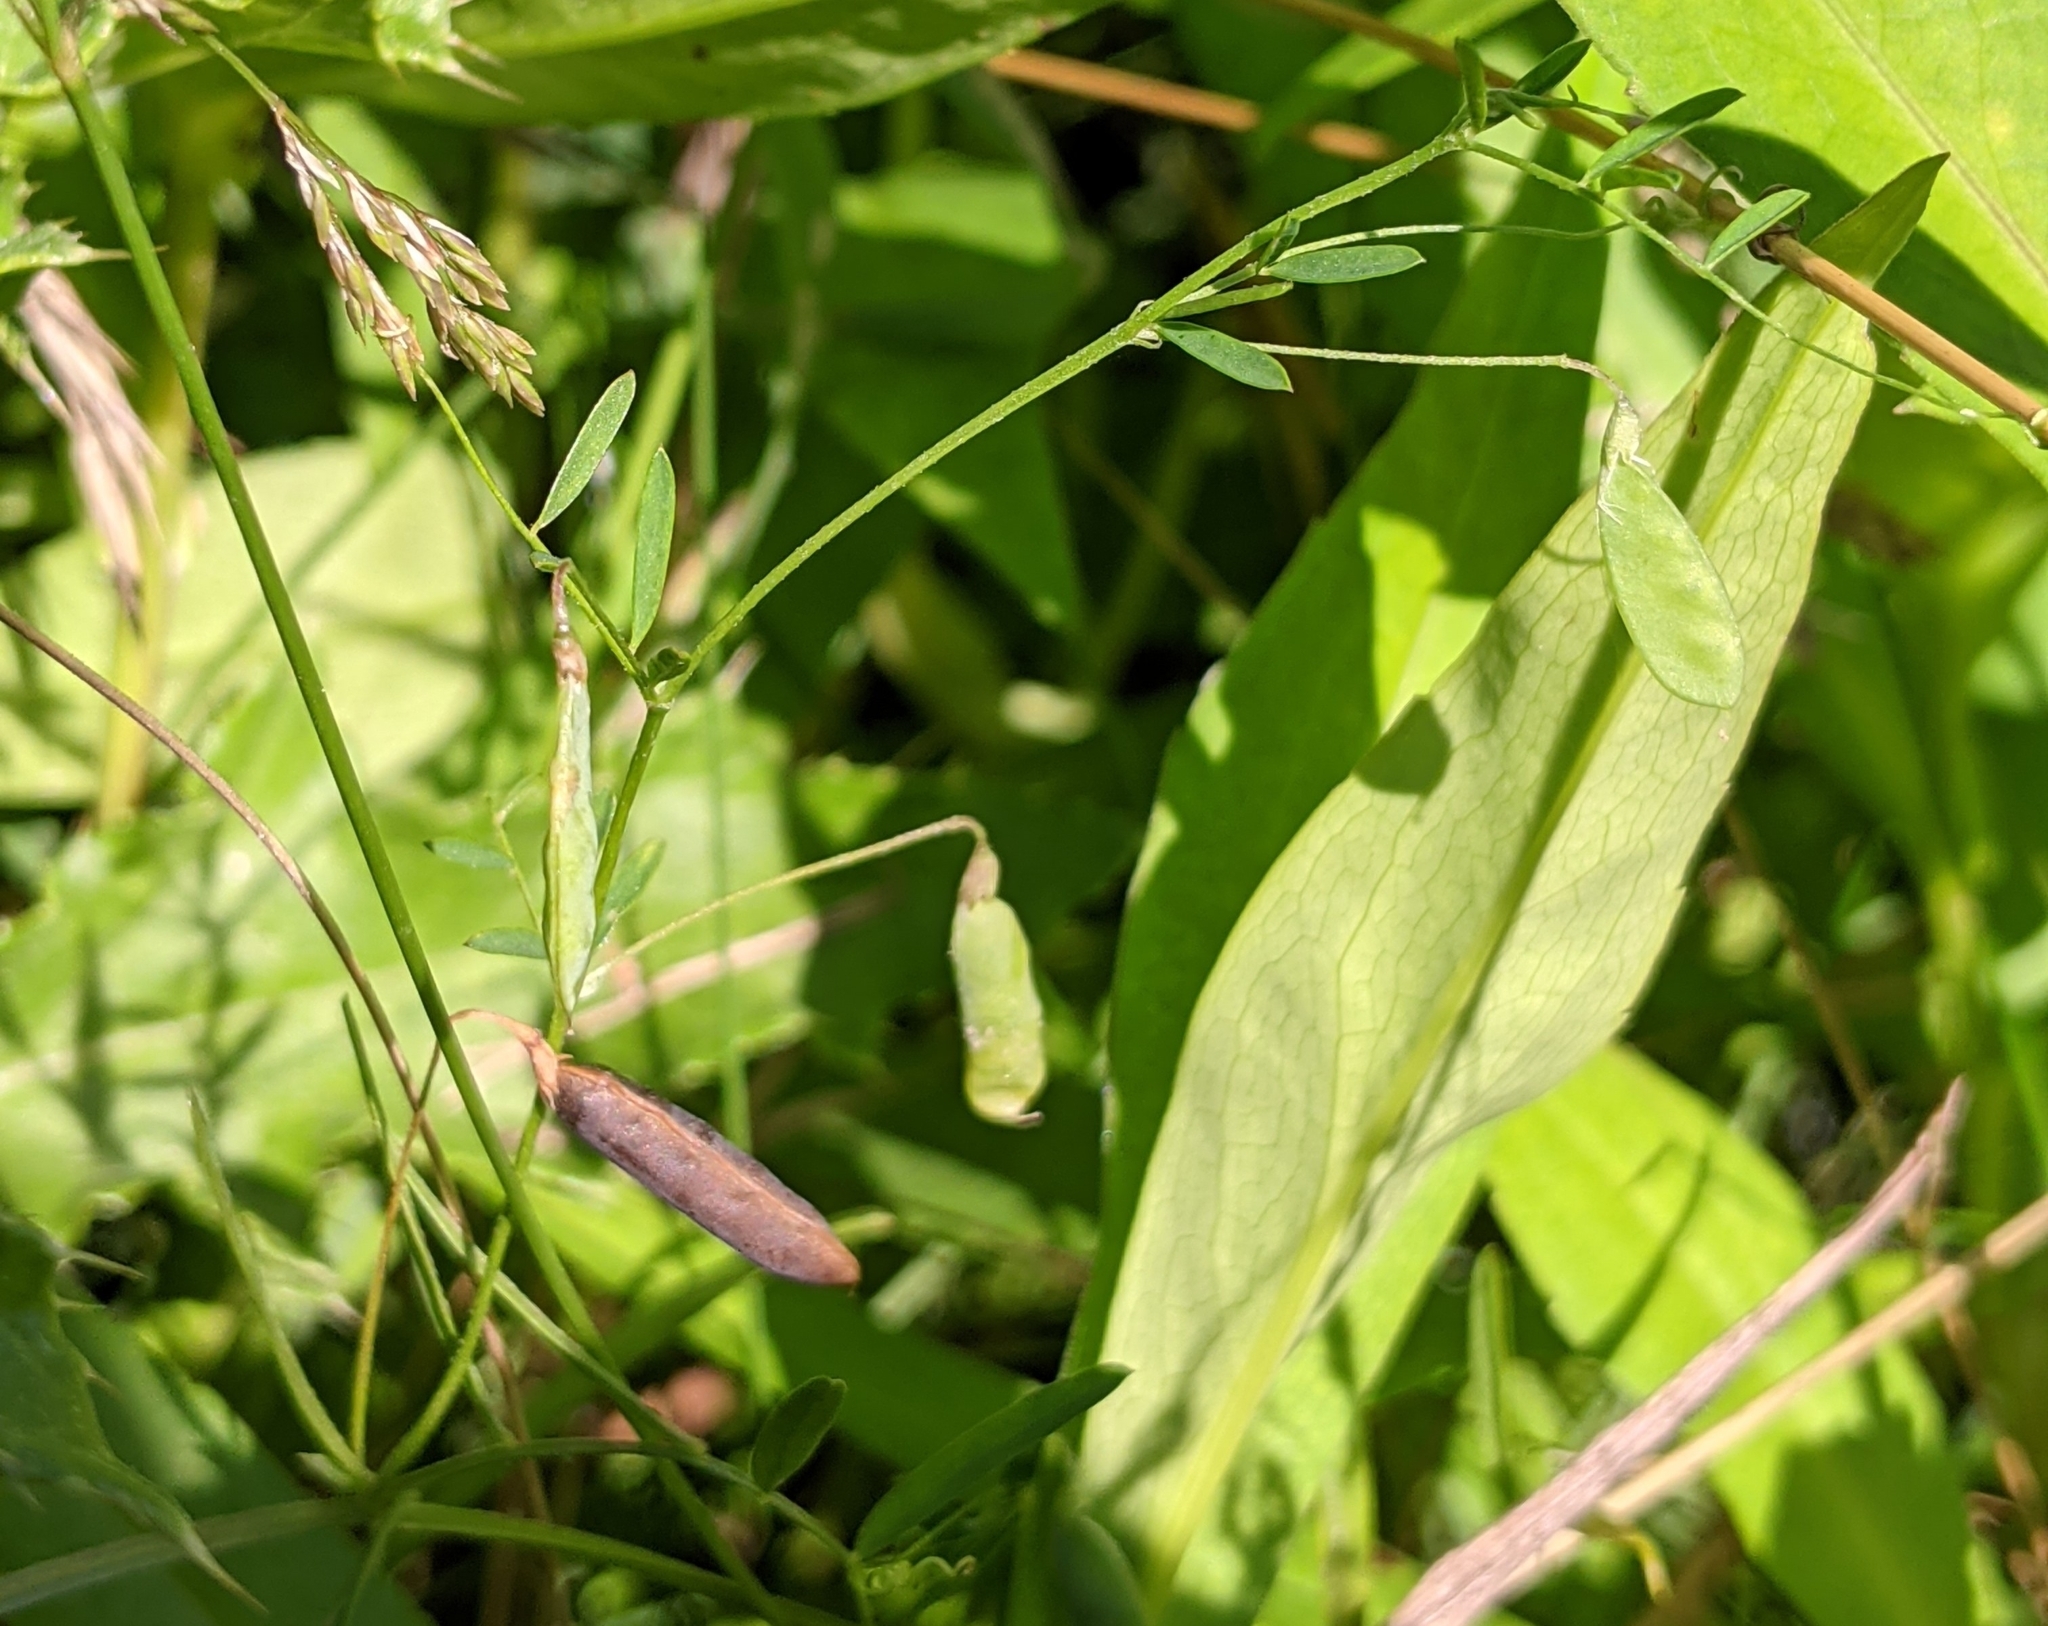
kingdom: Plantae
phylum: Tracheophyta
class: Magnoliopsida
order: Fabales
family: Fabaceae
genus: Vicia
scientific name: Vicia tetrasperma
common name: Smooth tare
